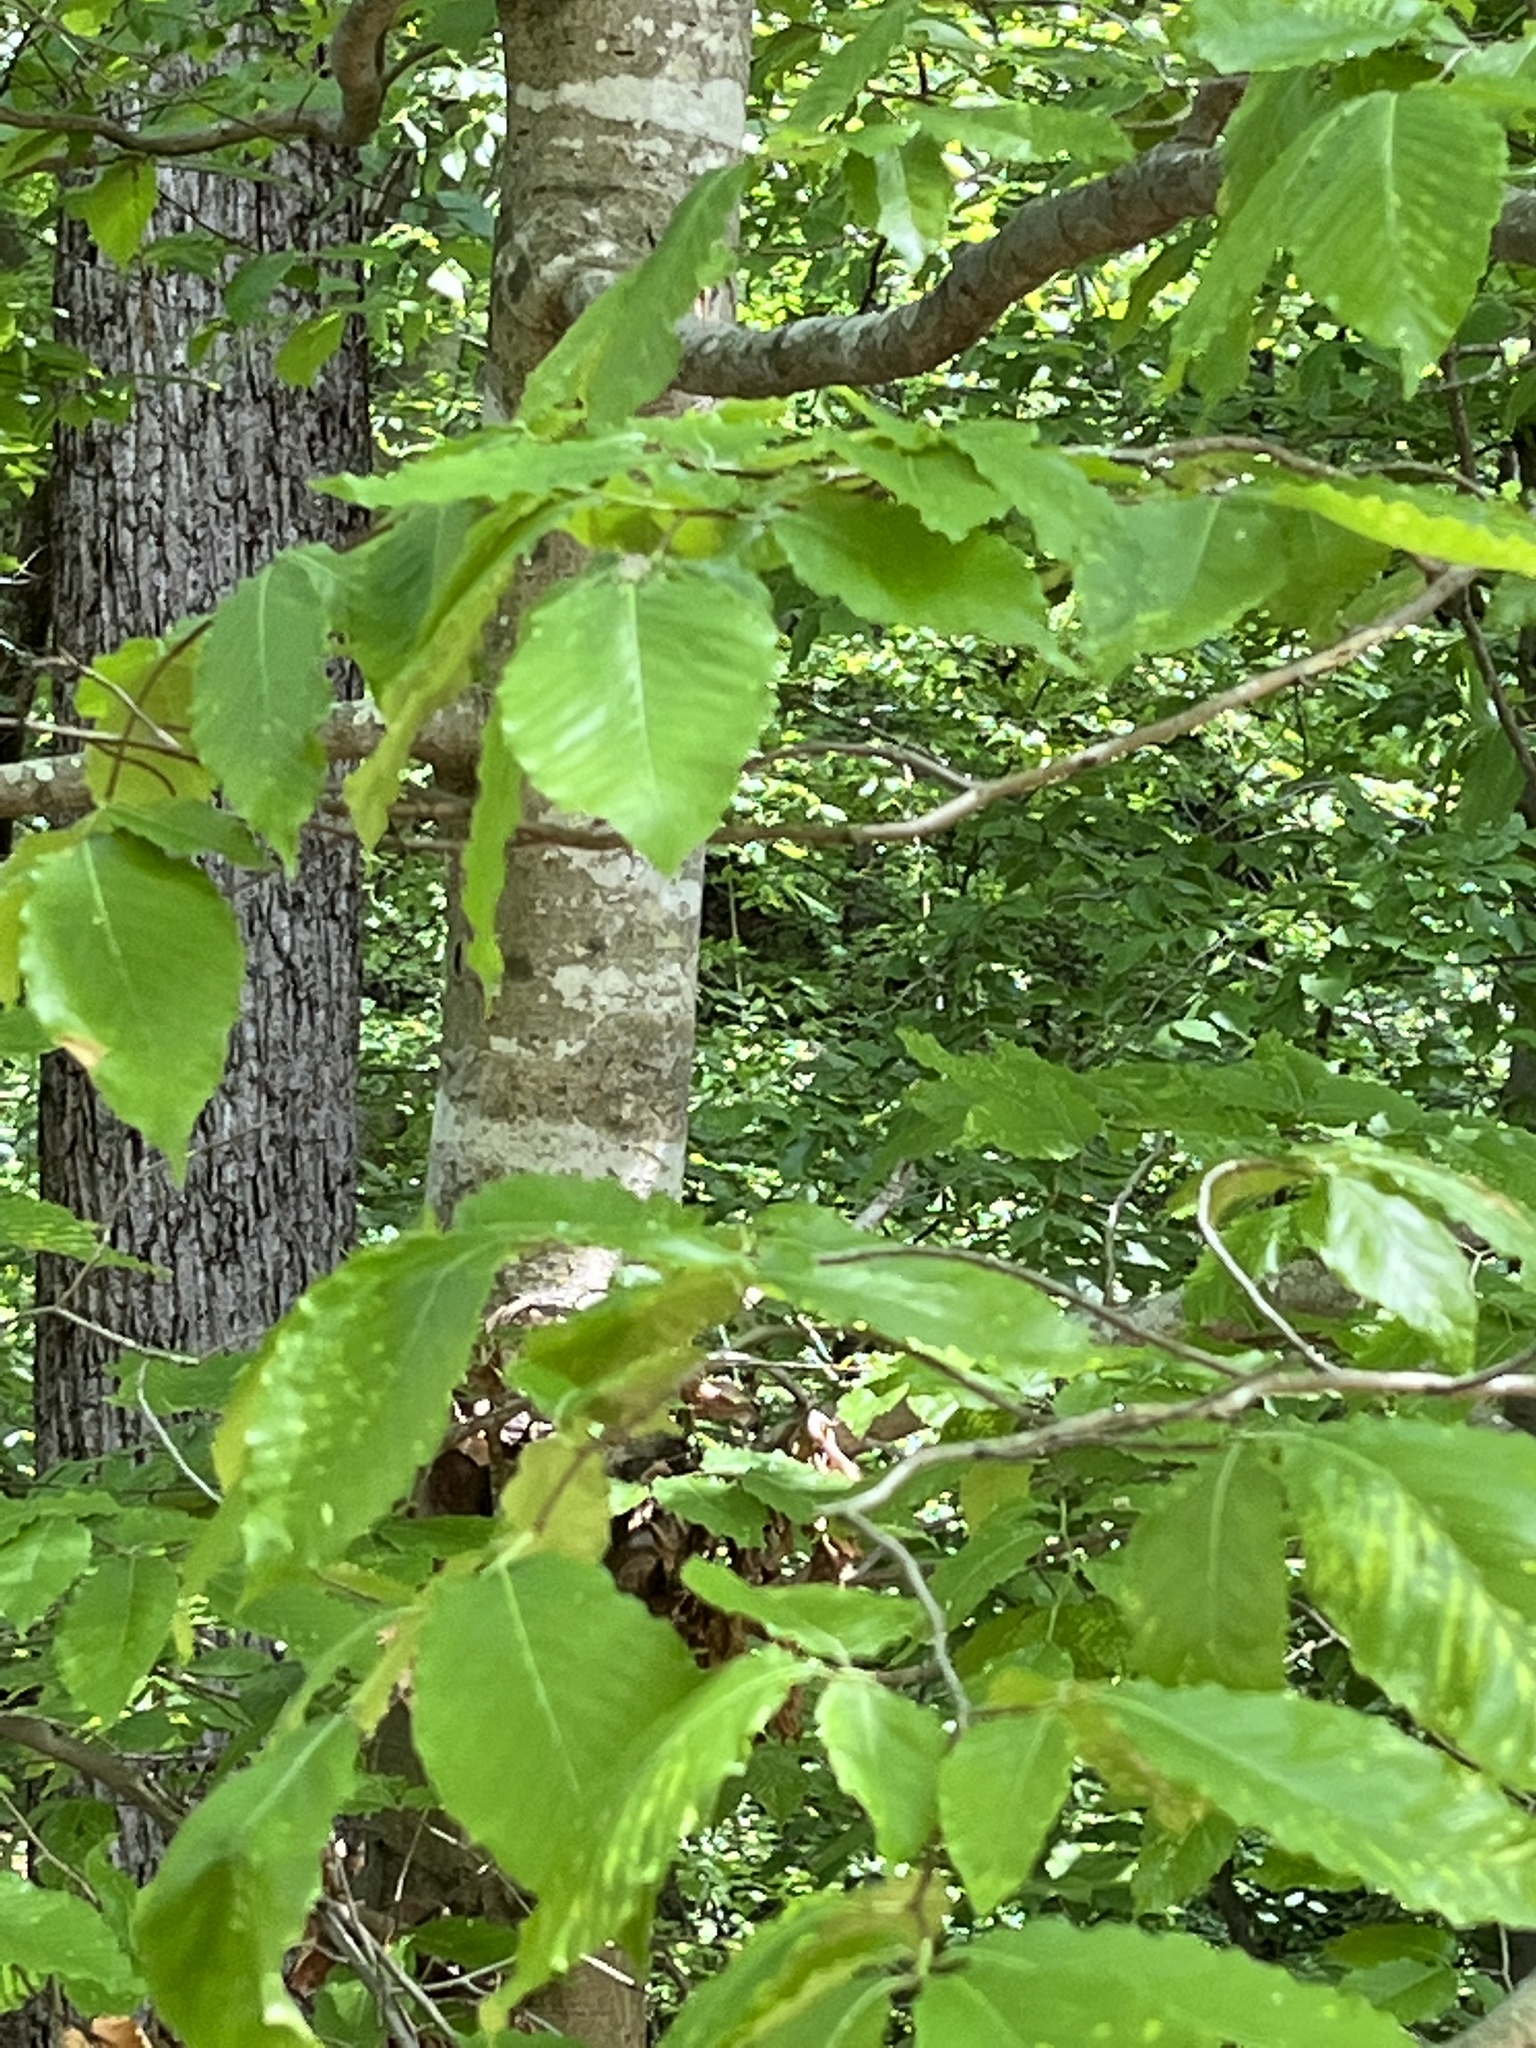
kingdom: Plantae
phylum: Tracheophyta
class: Magnoliopsida
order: Fagales
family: Fagaceae
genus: Fagus
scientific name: Fagus grandifolia
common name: American beech
